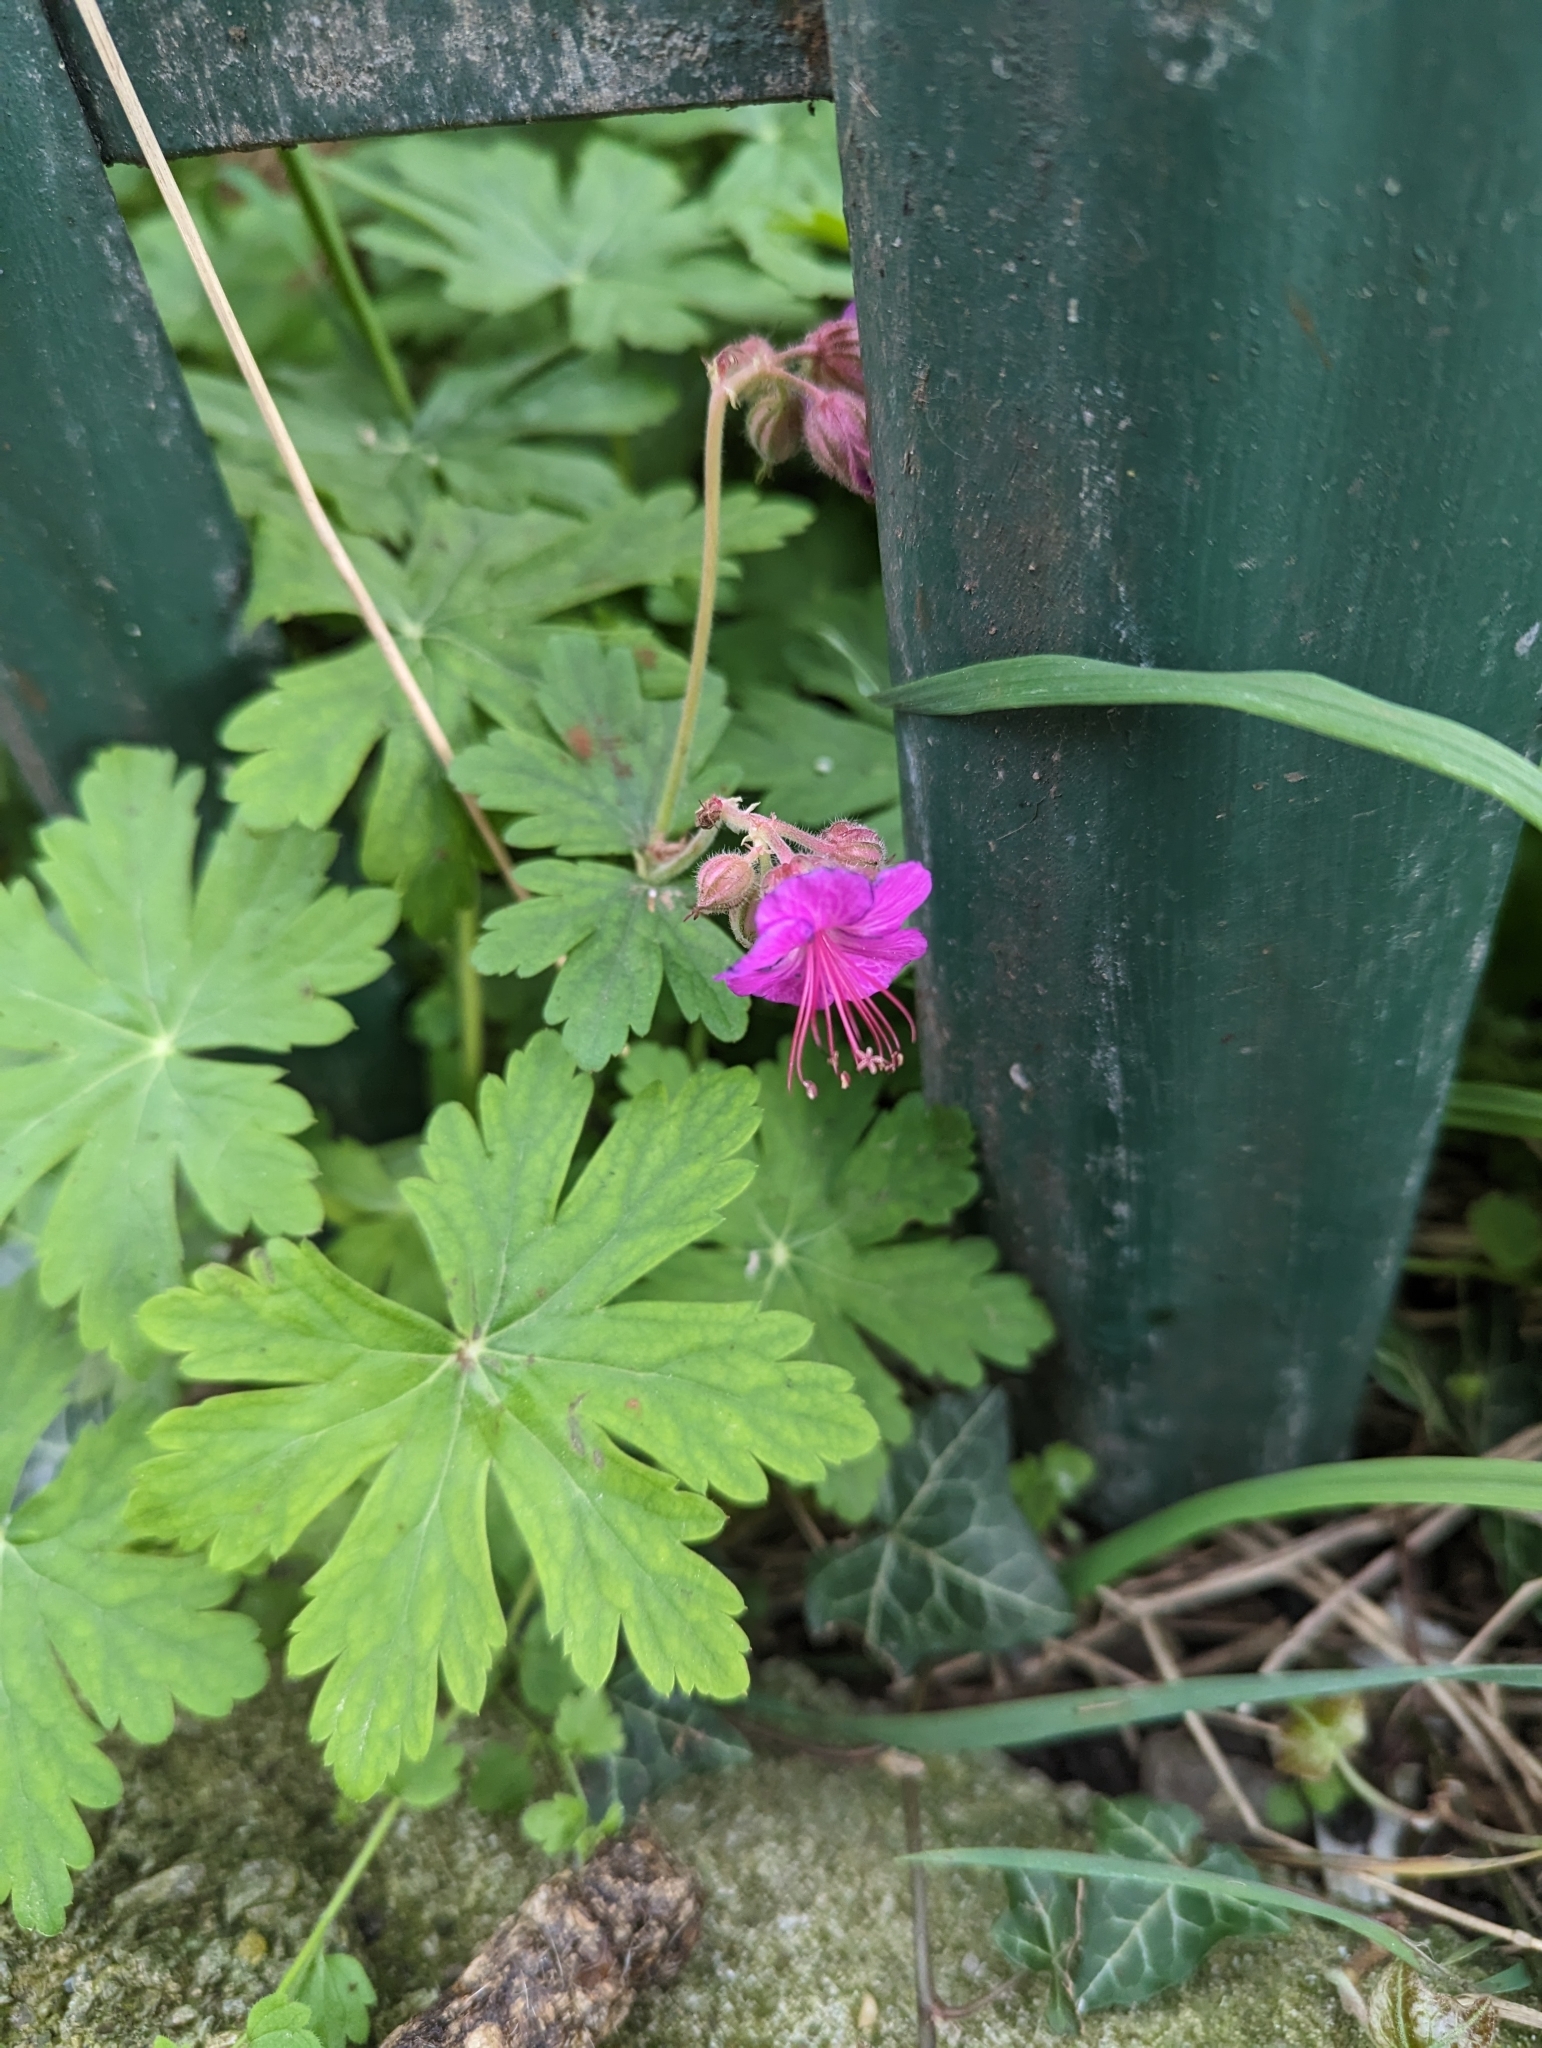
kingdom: Plantae
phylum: Tracheophyta
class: Magnoliopsida
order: Geraniales
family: Geraniaceae
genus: Geranium
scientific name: Geranium macrorrhizum
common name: Rock crane's-bill
